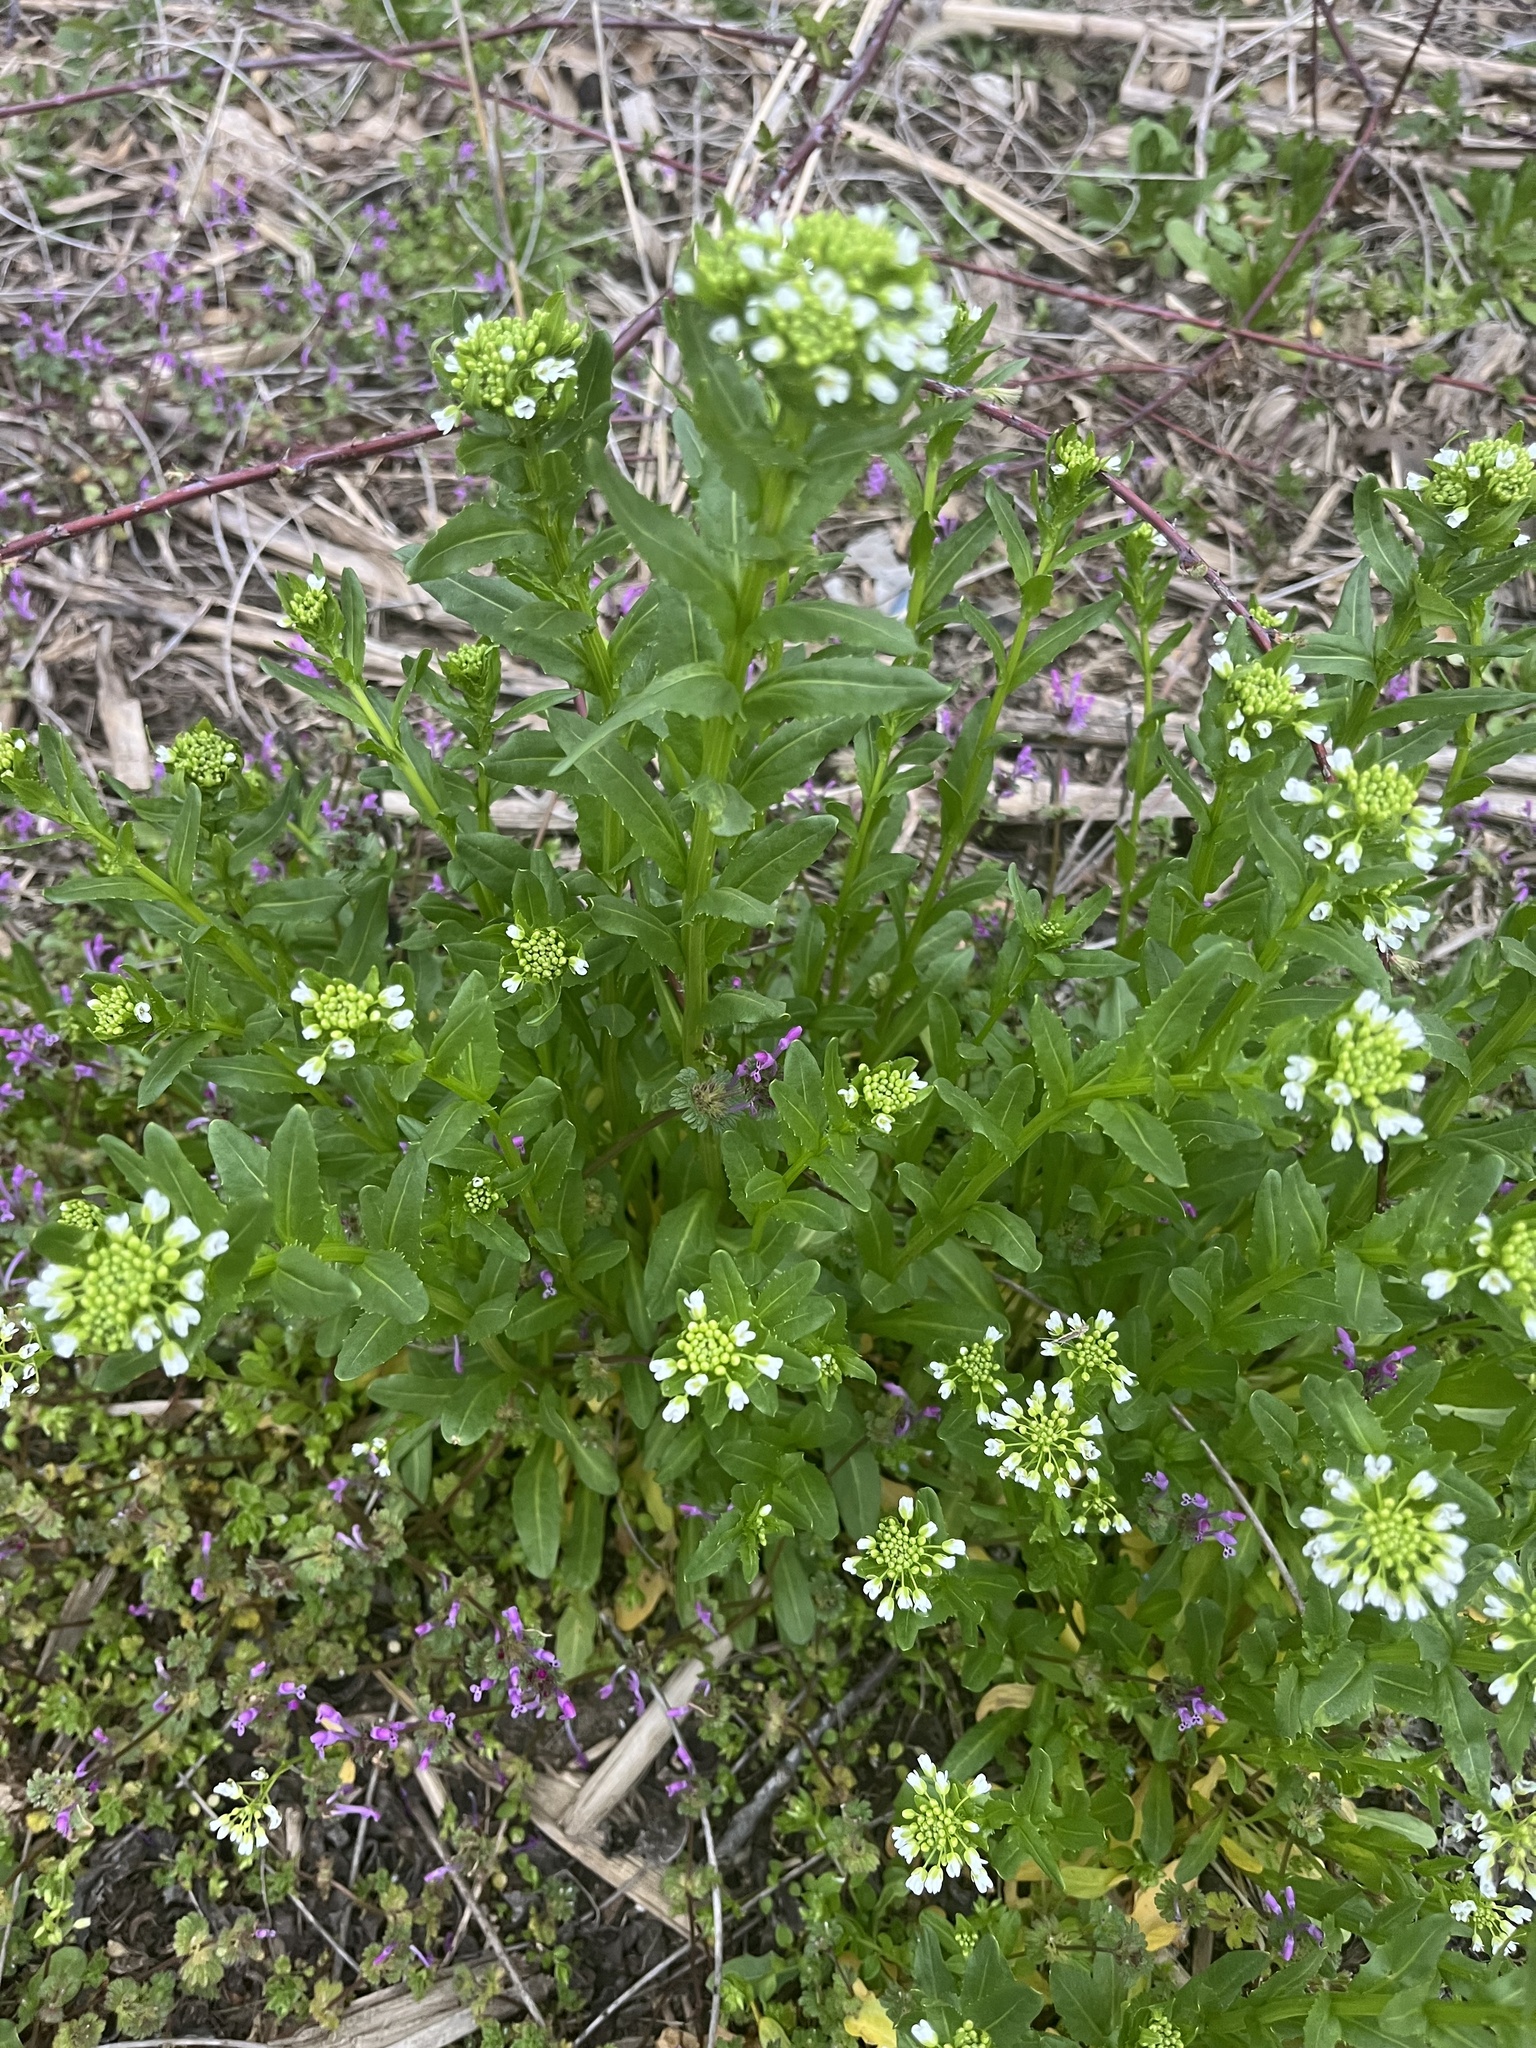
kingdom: Plantae
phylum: Tracheophyta
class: Magnoliopsida
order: Brassicales
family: Brassicaceae
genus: Thlaspi
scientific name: Thlaspi arvense
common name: Field pennycress
